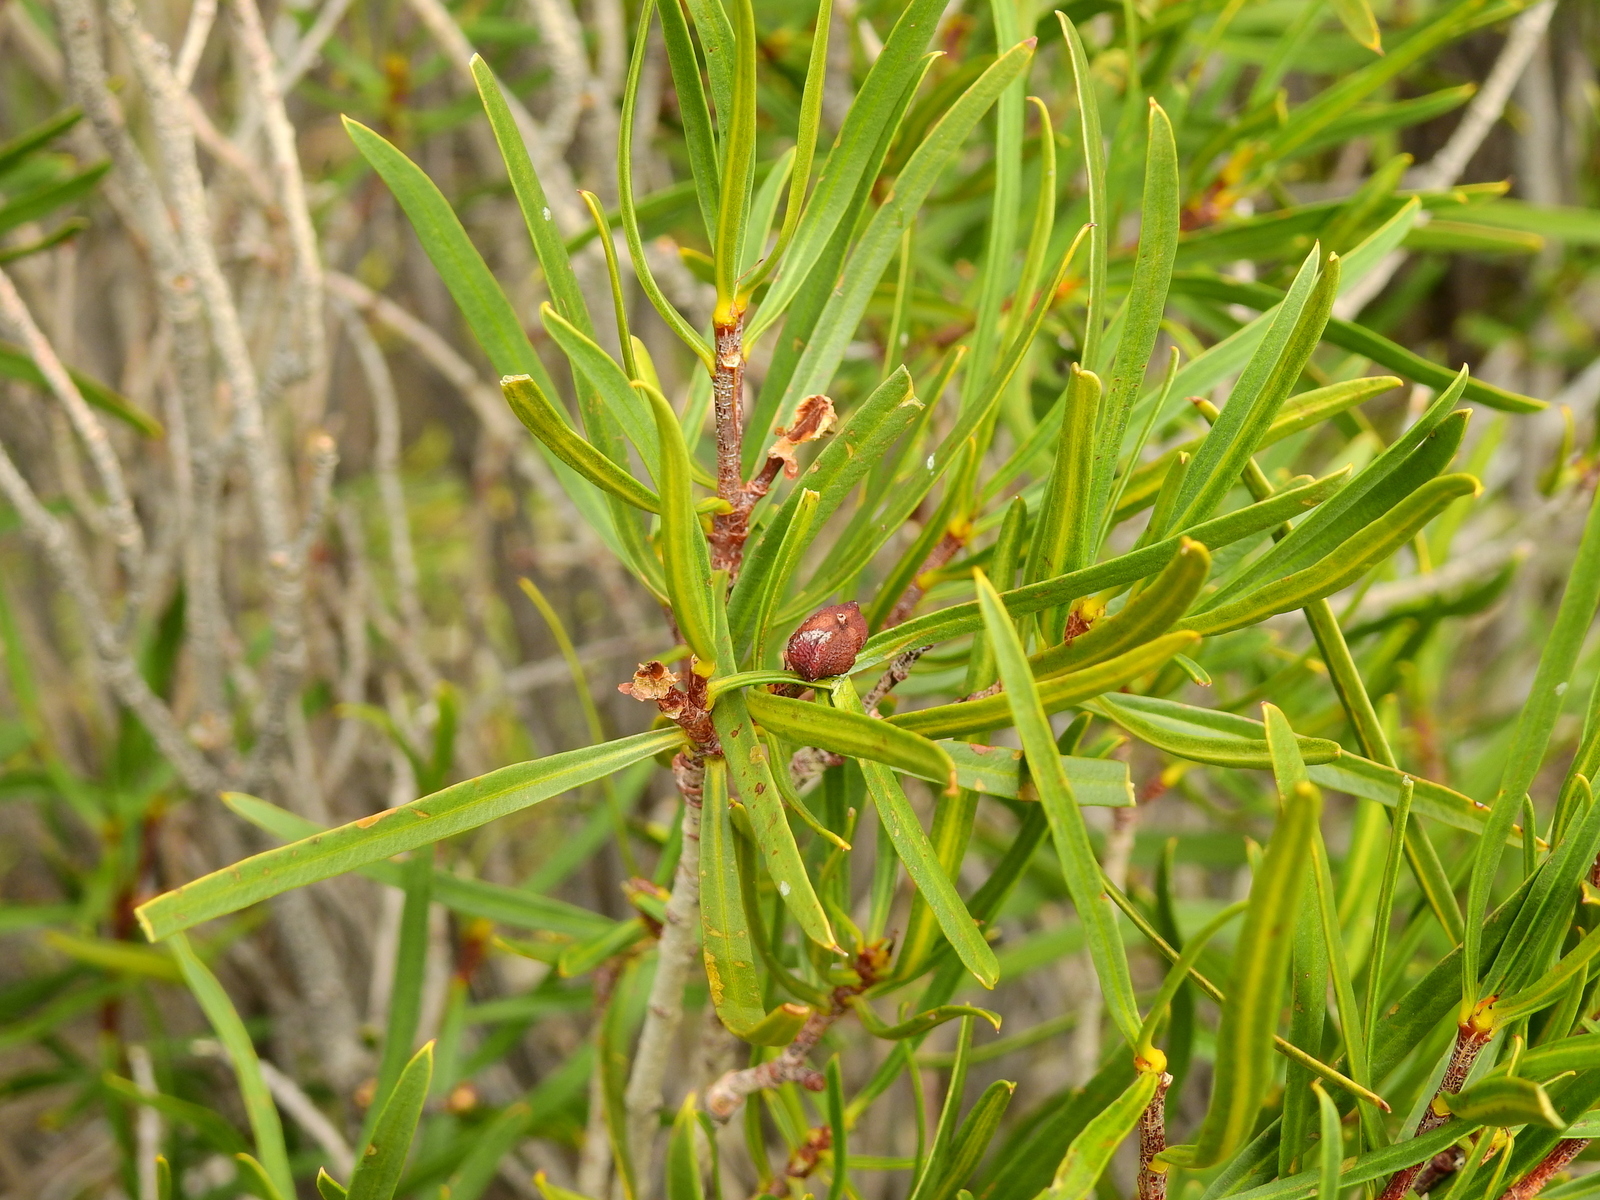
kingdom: Plantae
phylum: Tracheophyta
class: Magnoliopsida
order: Malpighiales
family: Euphorbiaceae
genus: Colliguaja
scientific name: Colliguaja integerrima
